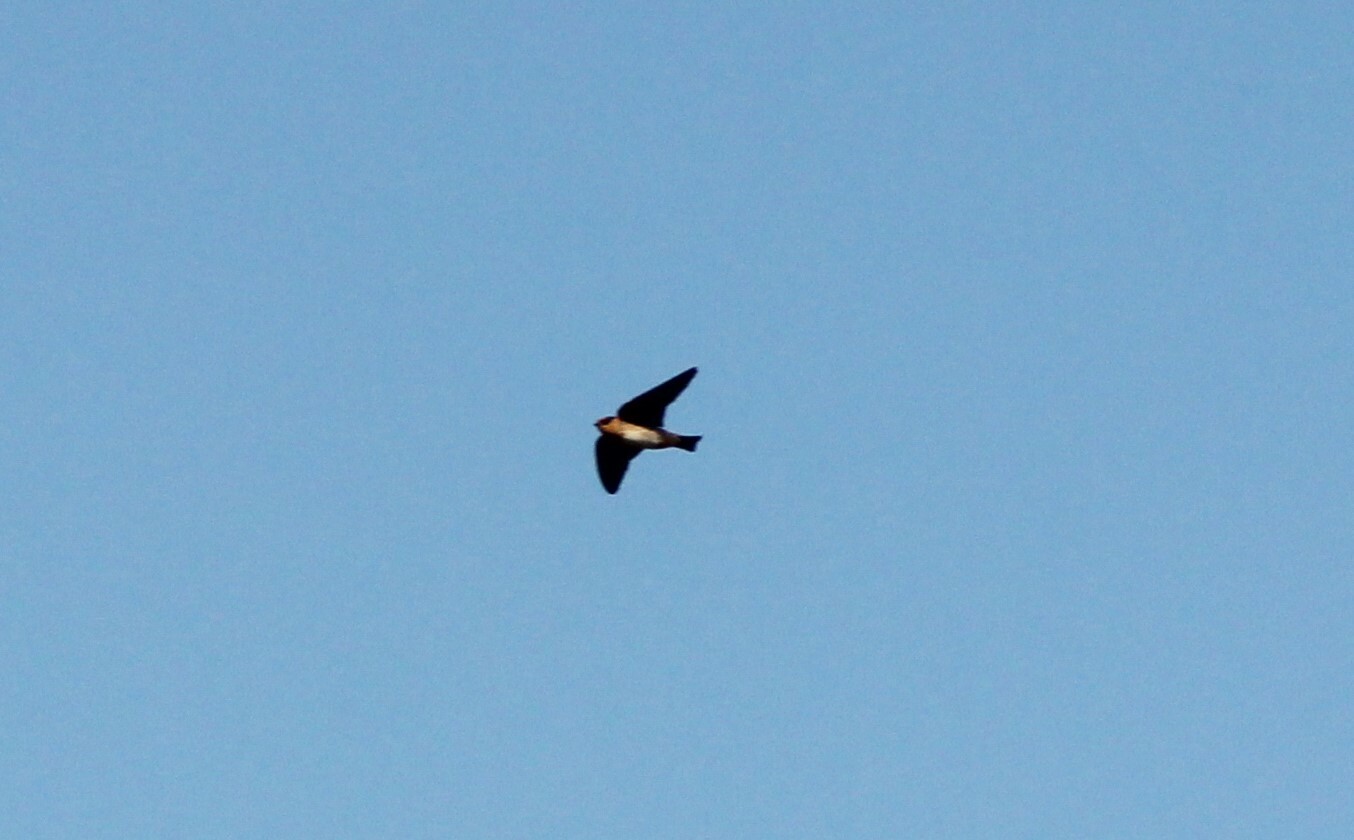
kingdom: Animalia
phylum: Chordata
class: Aves
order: Passeriformes
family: Hirundinidae
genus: Petrochelidon
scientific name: Petrochelidon fulva
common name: Cave swallow
